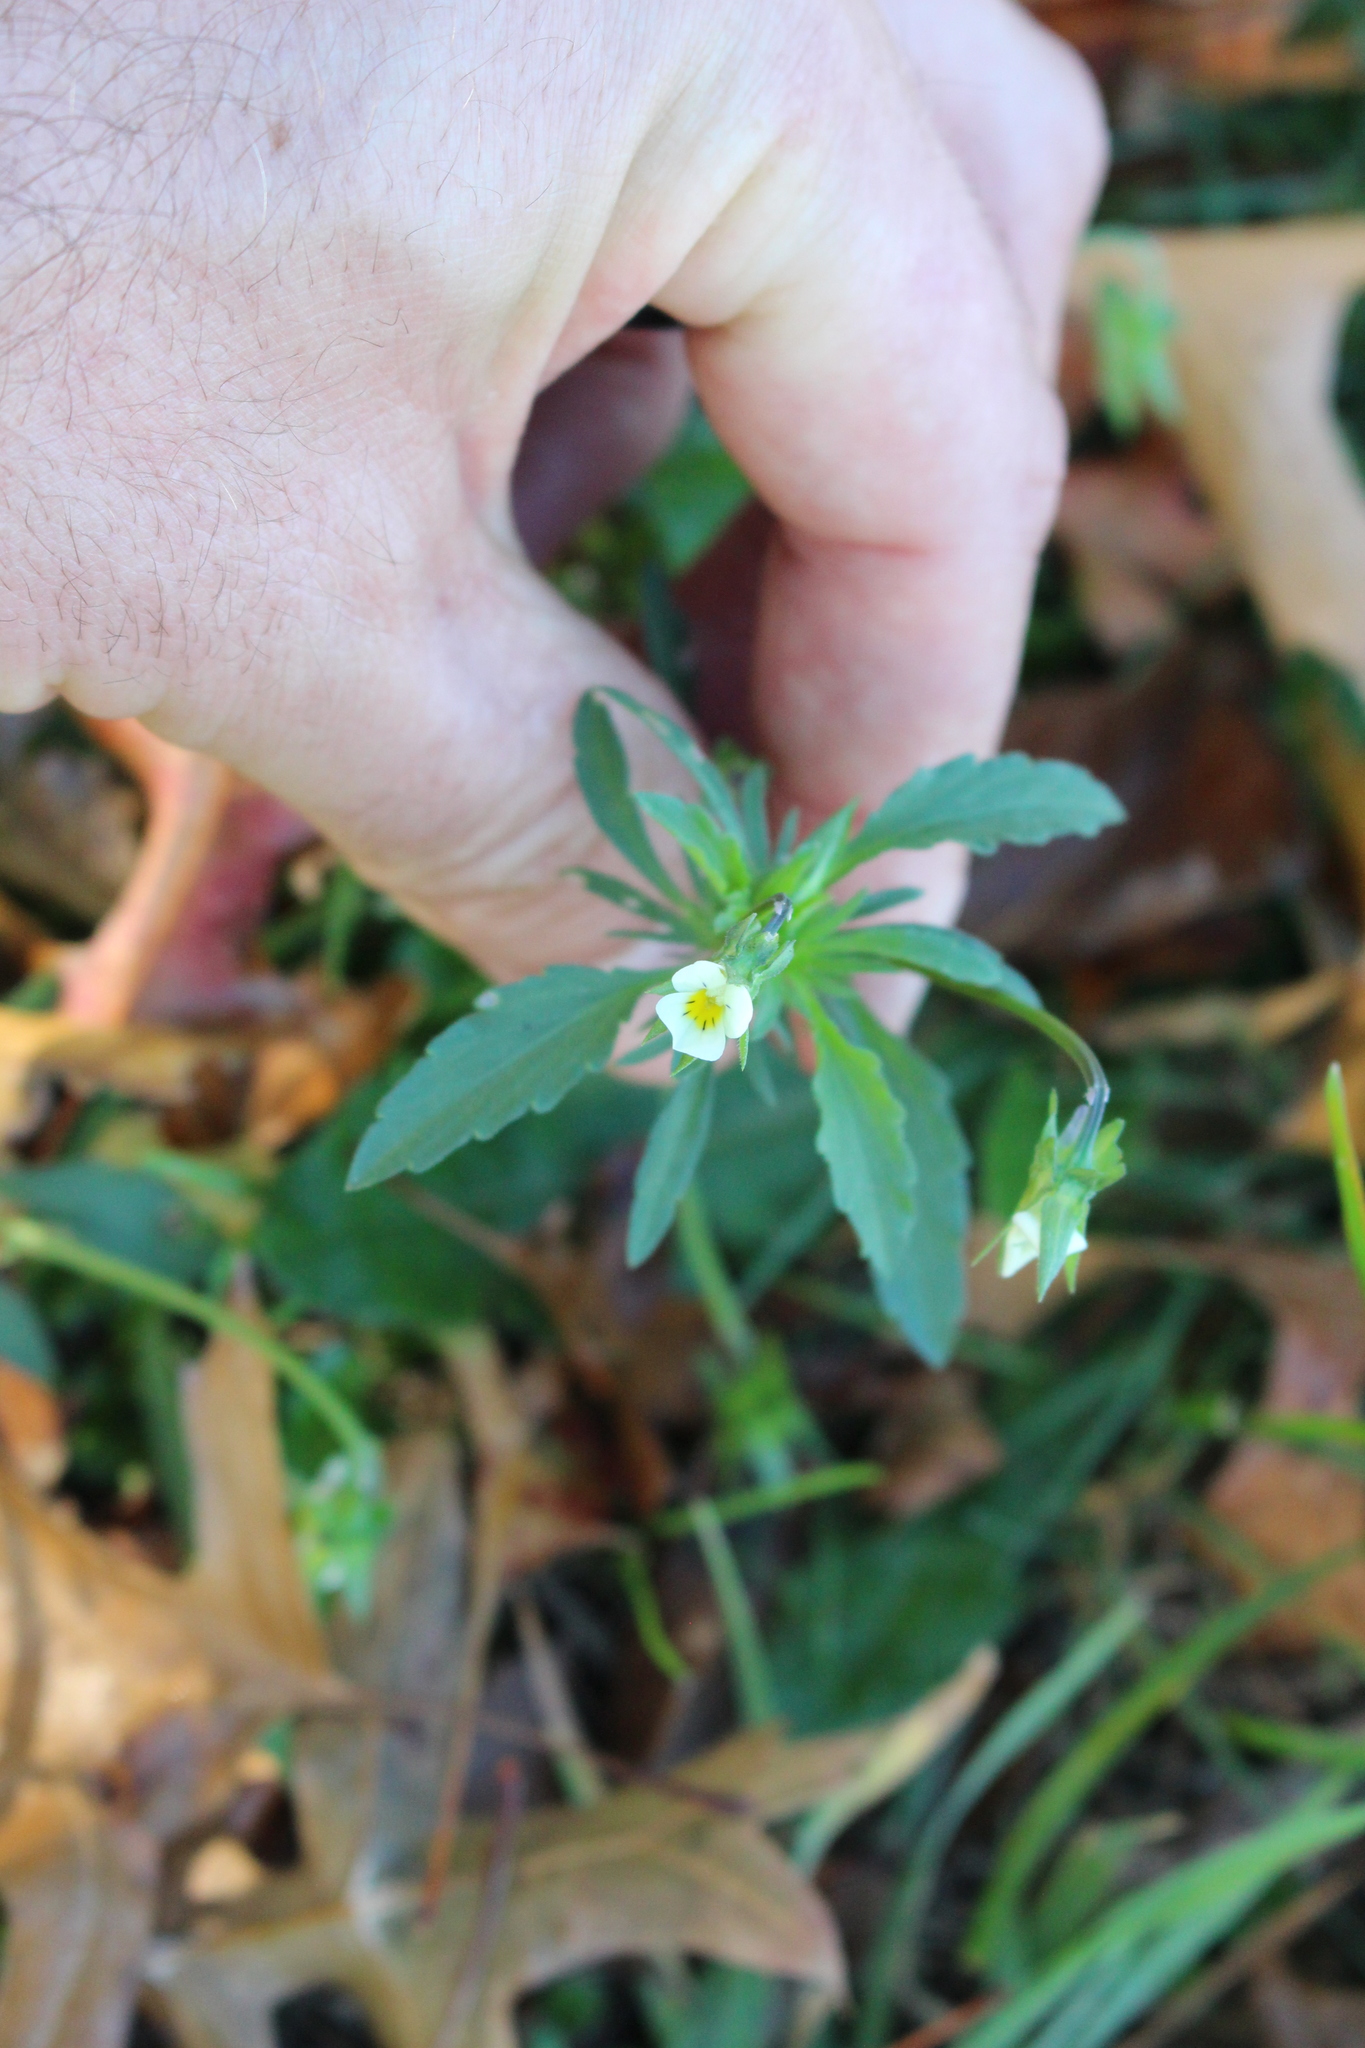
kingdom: Plantae
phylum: Tracheophyta
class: Magnoliopsida
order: Malpighiales
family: Violaceae
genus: Viola
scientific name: Viola arvensis
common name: Field pansy
